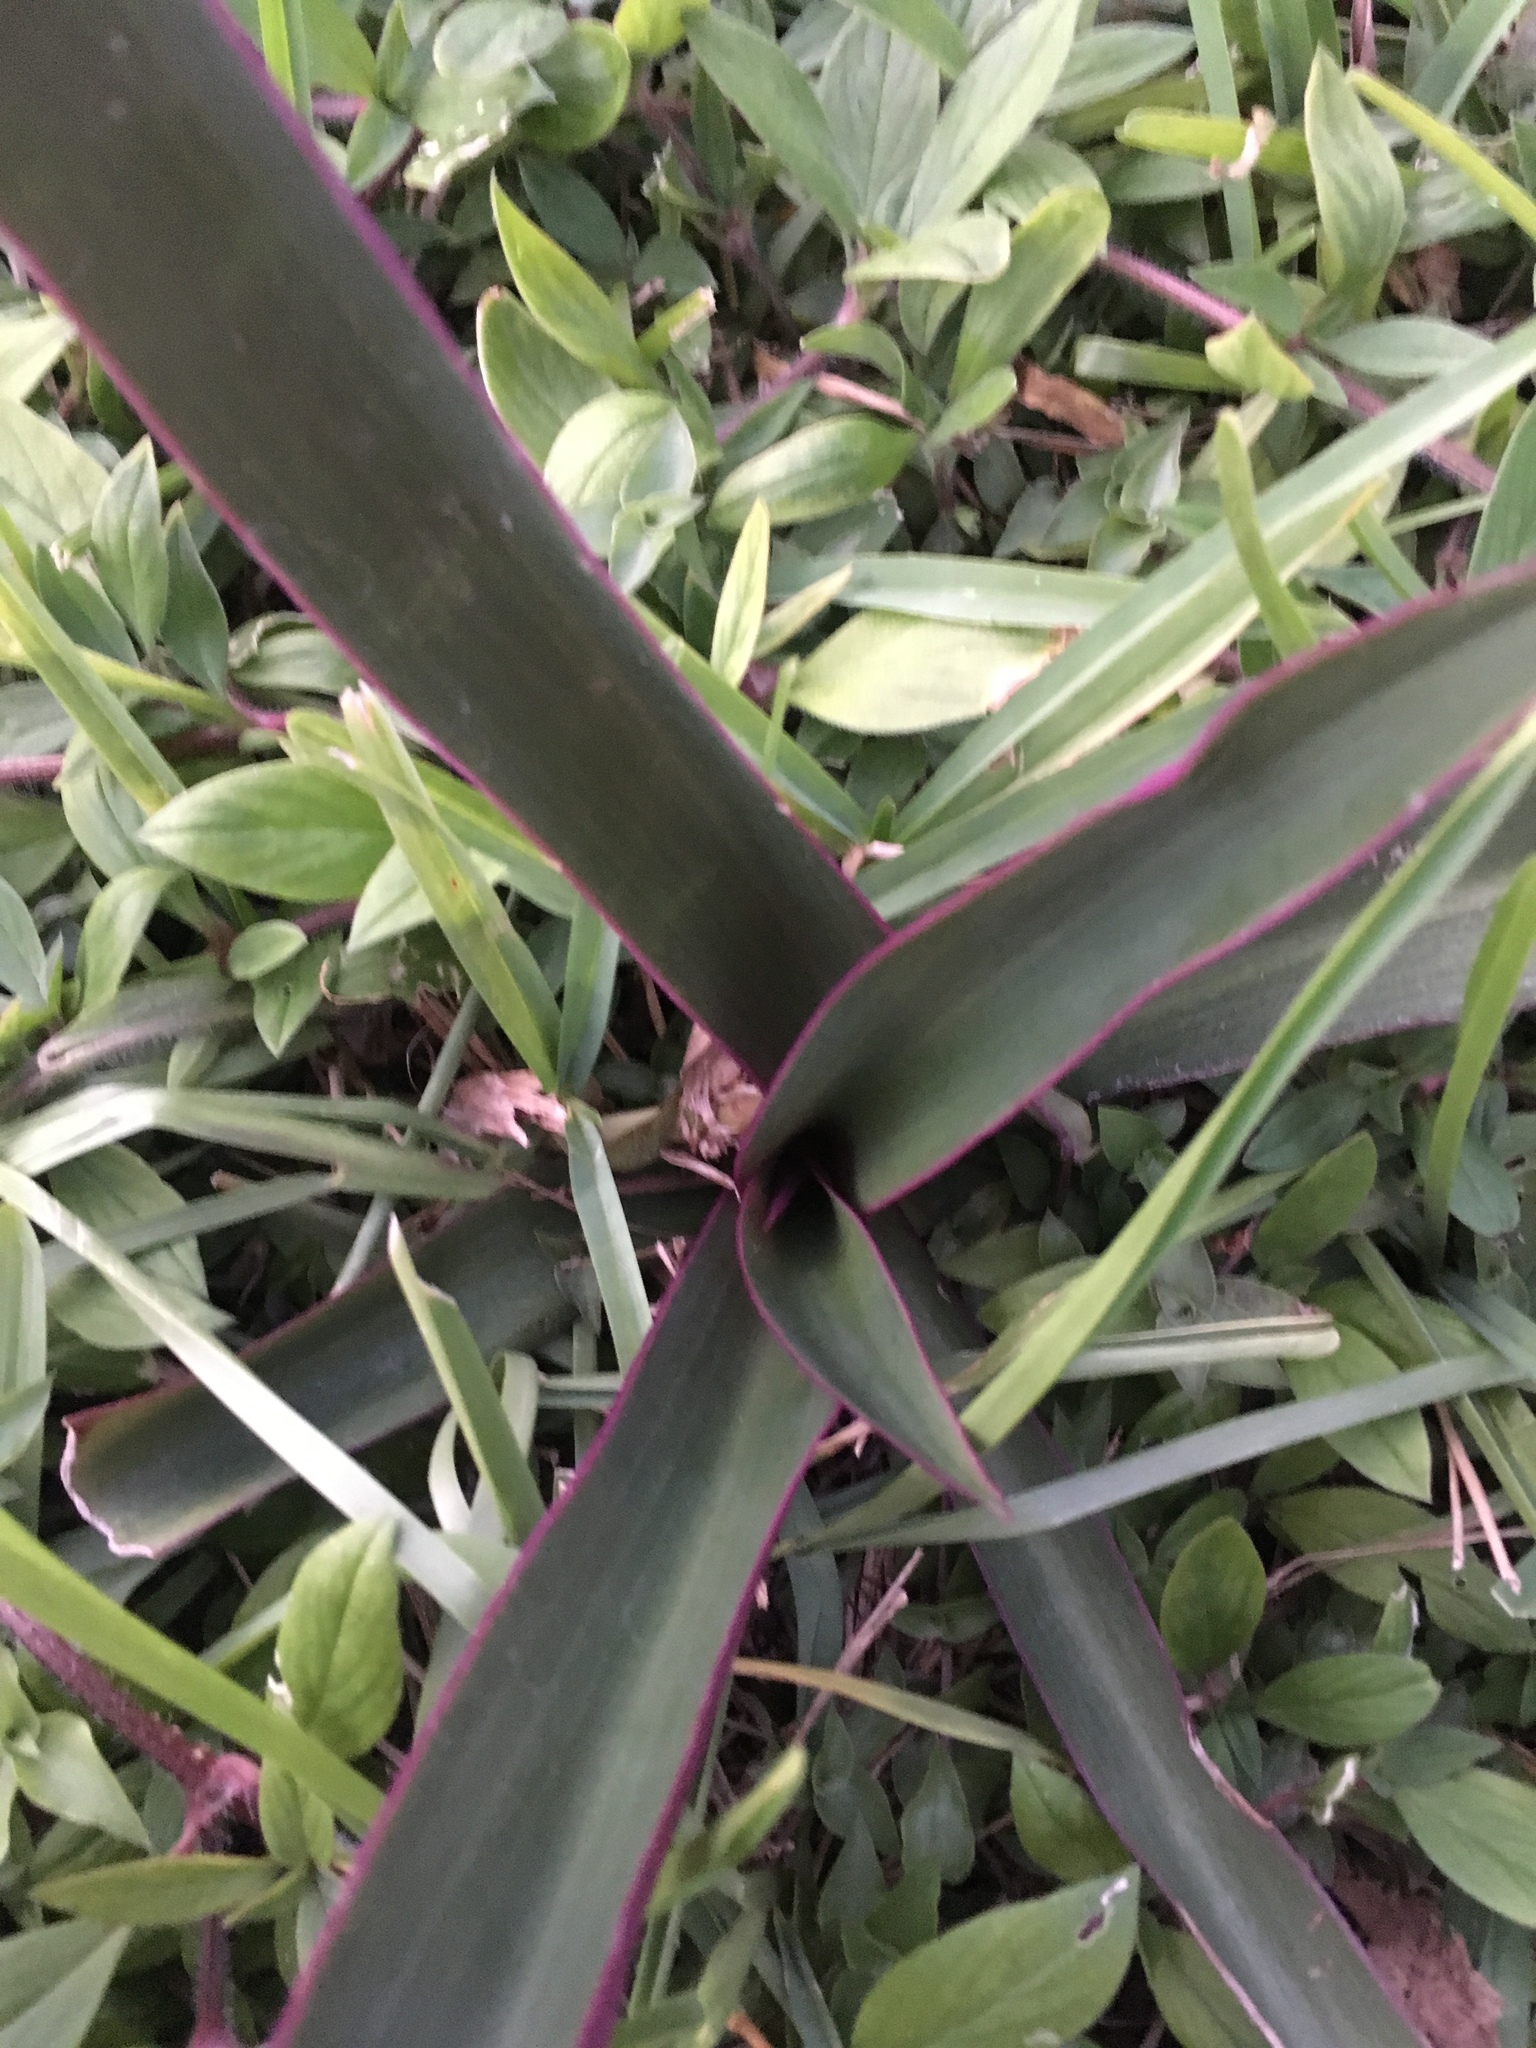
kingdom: Plantae
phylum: Tracheophyta
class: Liliopsida
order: Commelinales
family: Commelinaceae
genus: Tradescantia
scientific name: Tradescantia spathacea
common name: Boatlily
